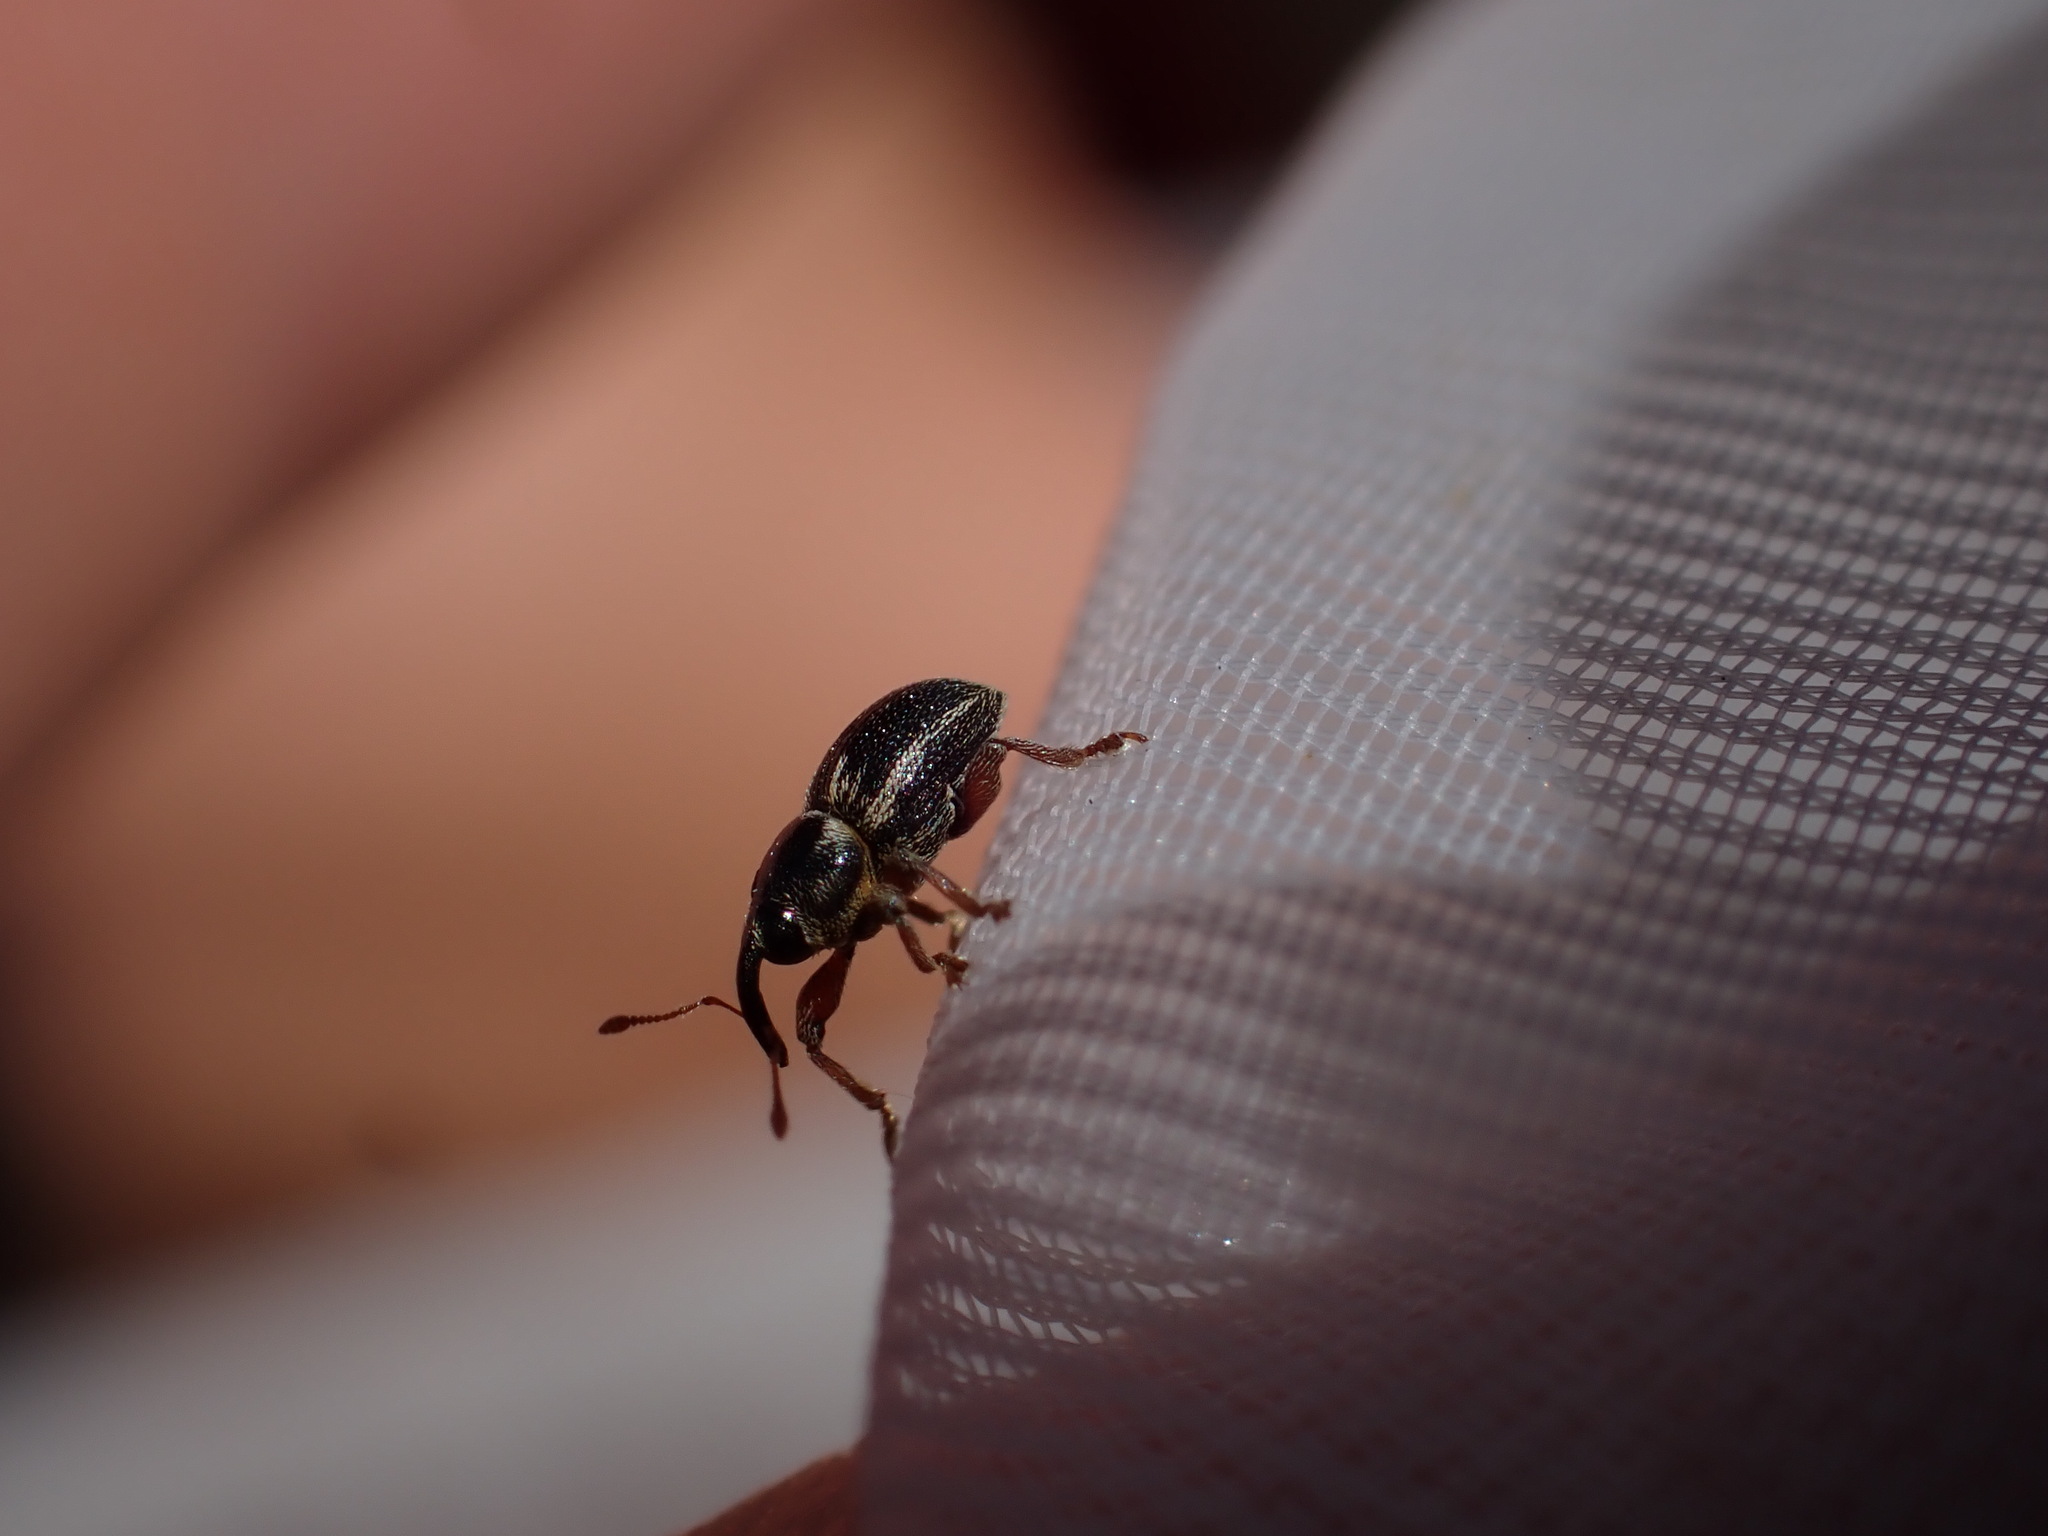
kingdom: Animalia
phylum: Arthropoda
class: Insecta
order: Coleoptera
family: Curculionidae
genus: Pachytychius
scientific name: Pachytychius hordei
